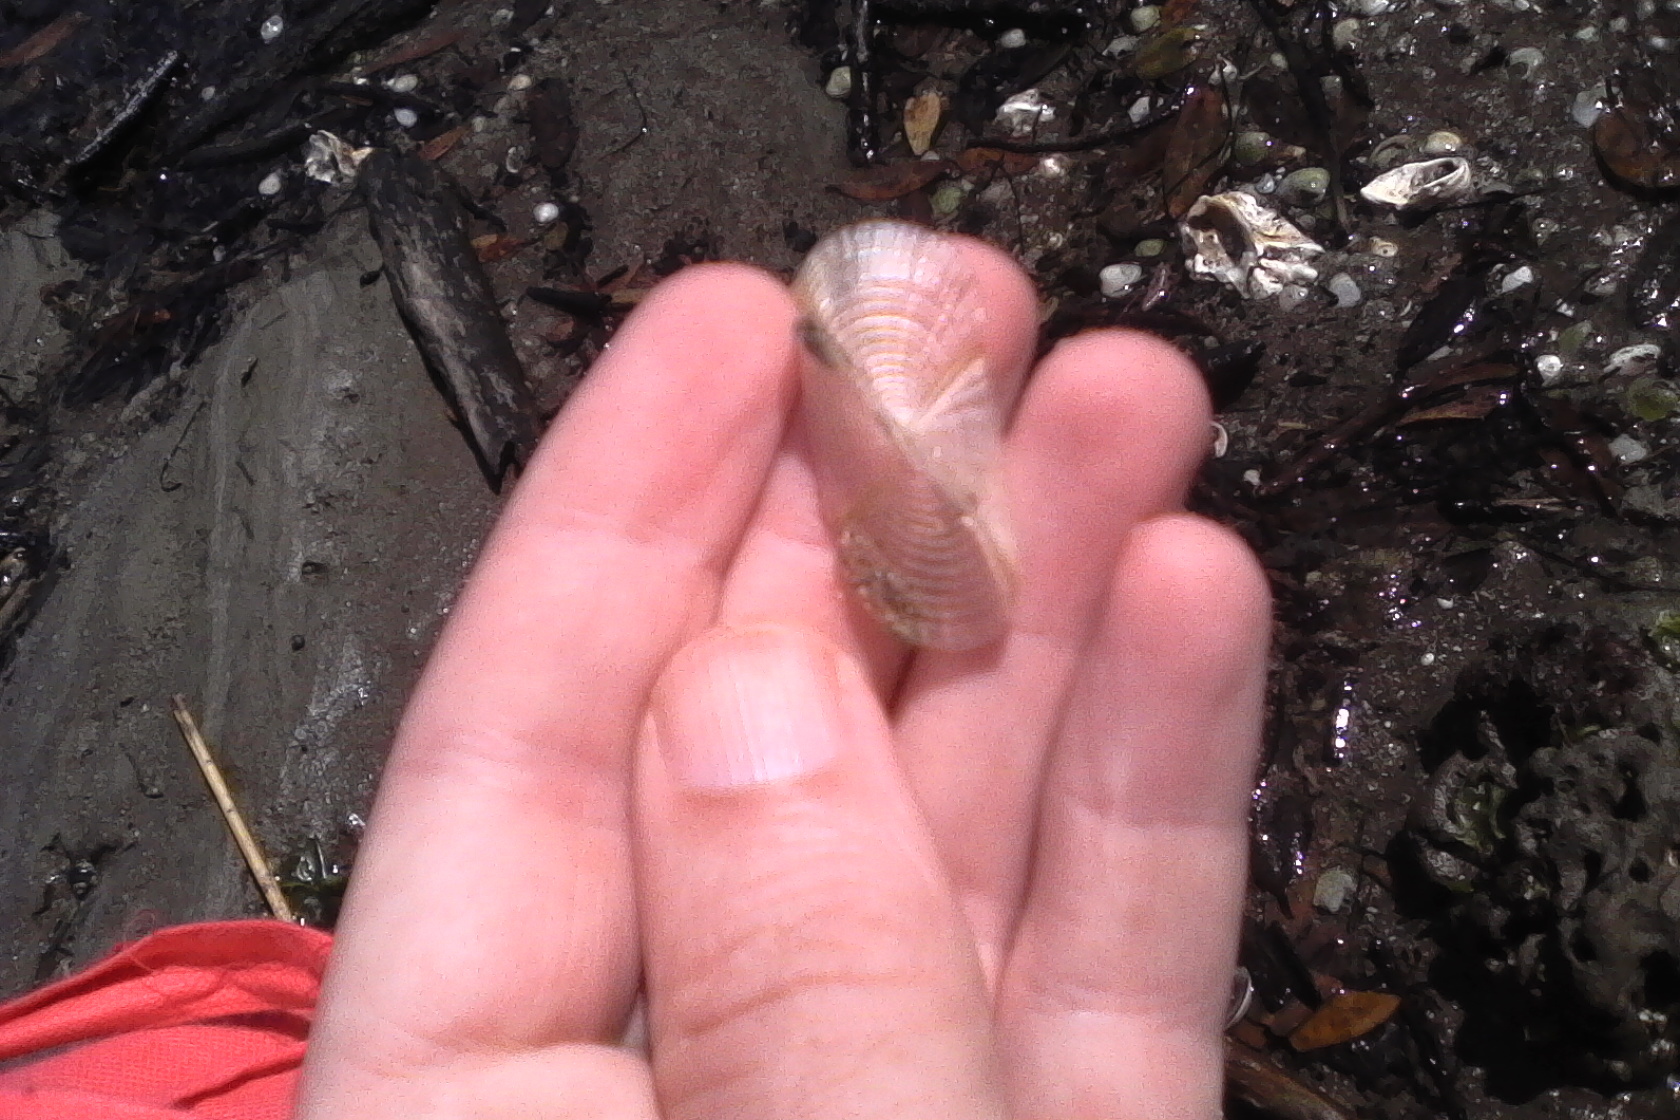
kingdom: Animalia
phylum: Cnidaria
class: Hydrozoa
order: Anthoathecata
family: Porpitidae
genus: Velella
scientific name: Velella velella
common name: By-the-wind-sailor
